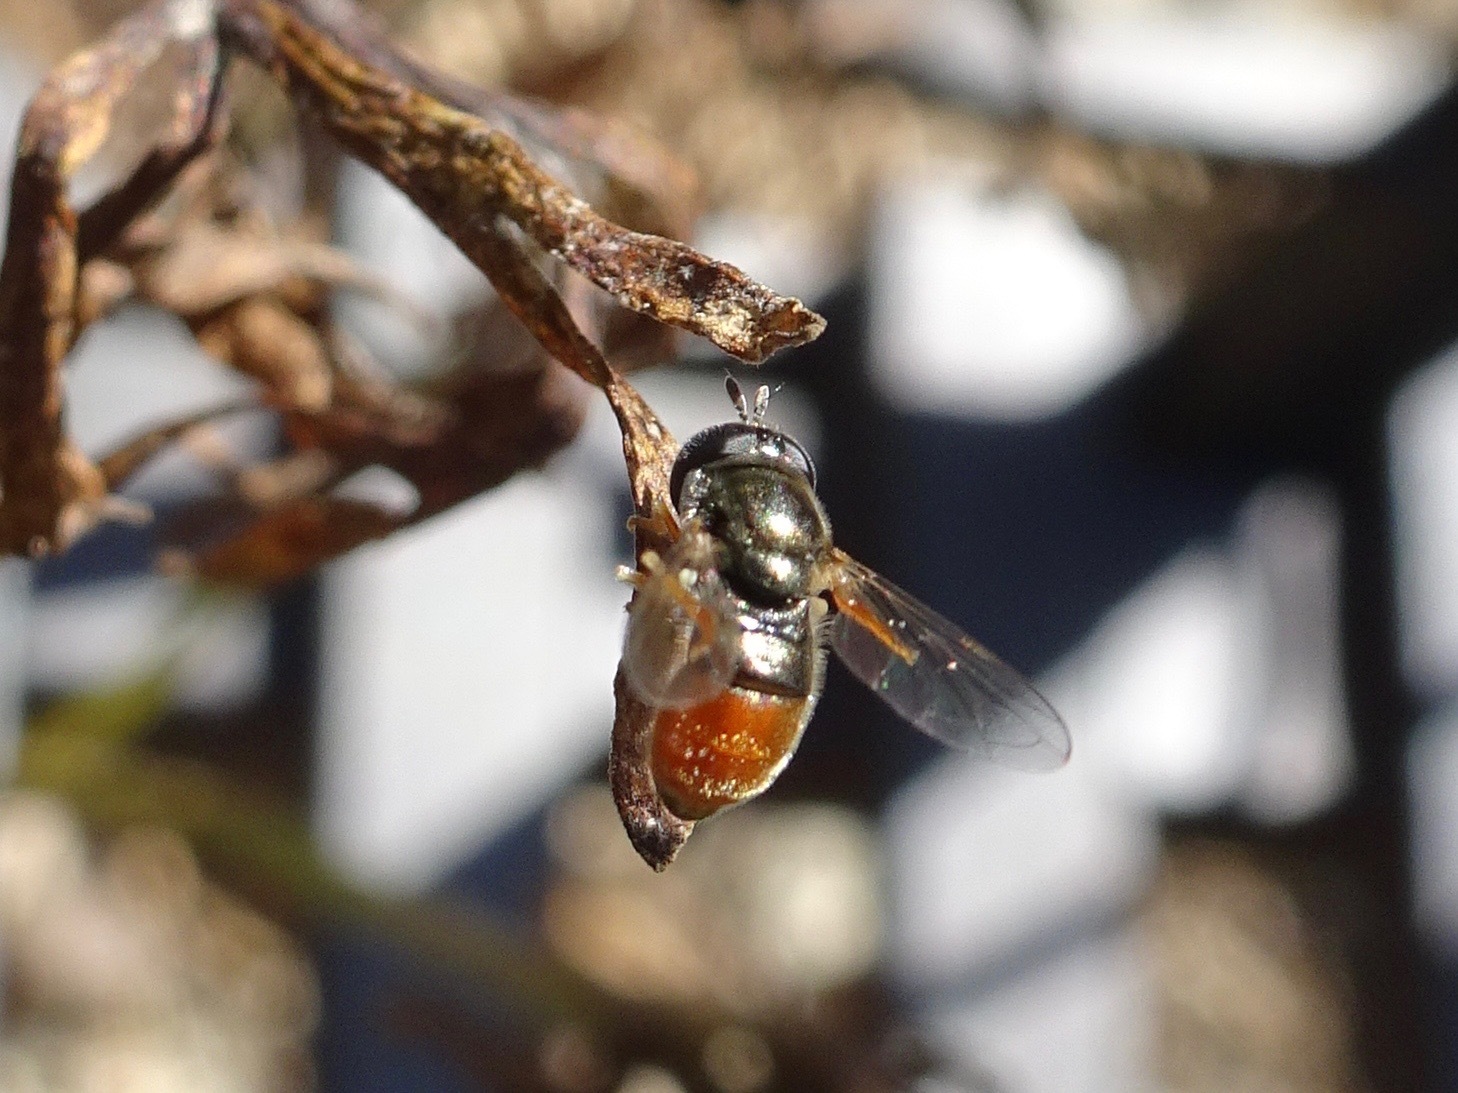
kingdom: Animalia
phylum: Arthropoda
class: Insecta
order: Diptera
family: Syrphidae
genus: Paragus
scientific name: Paragus haemorrhous
